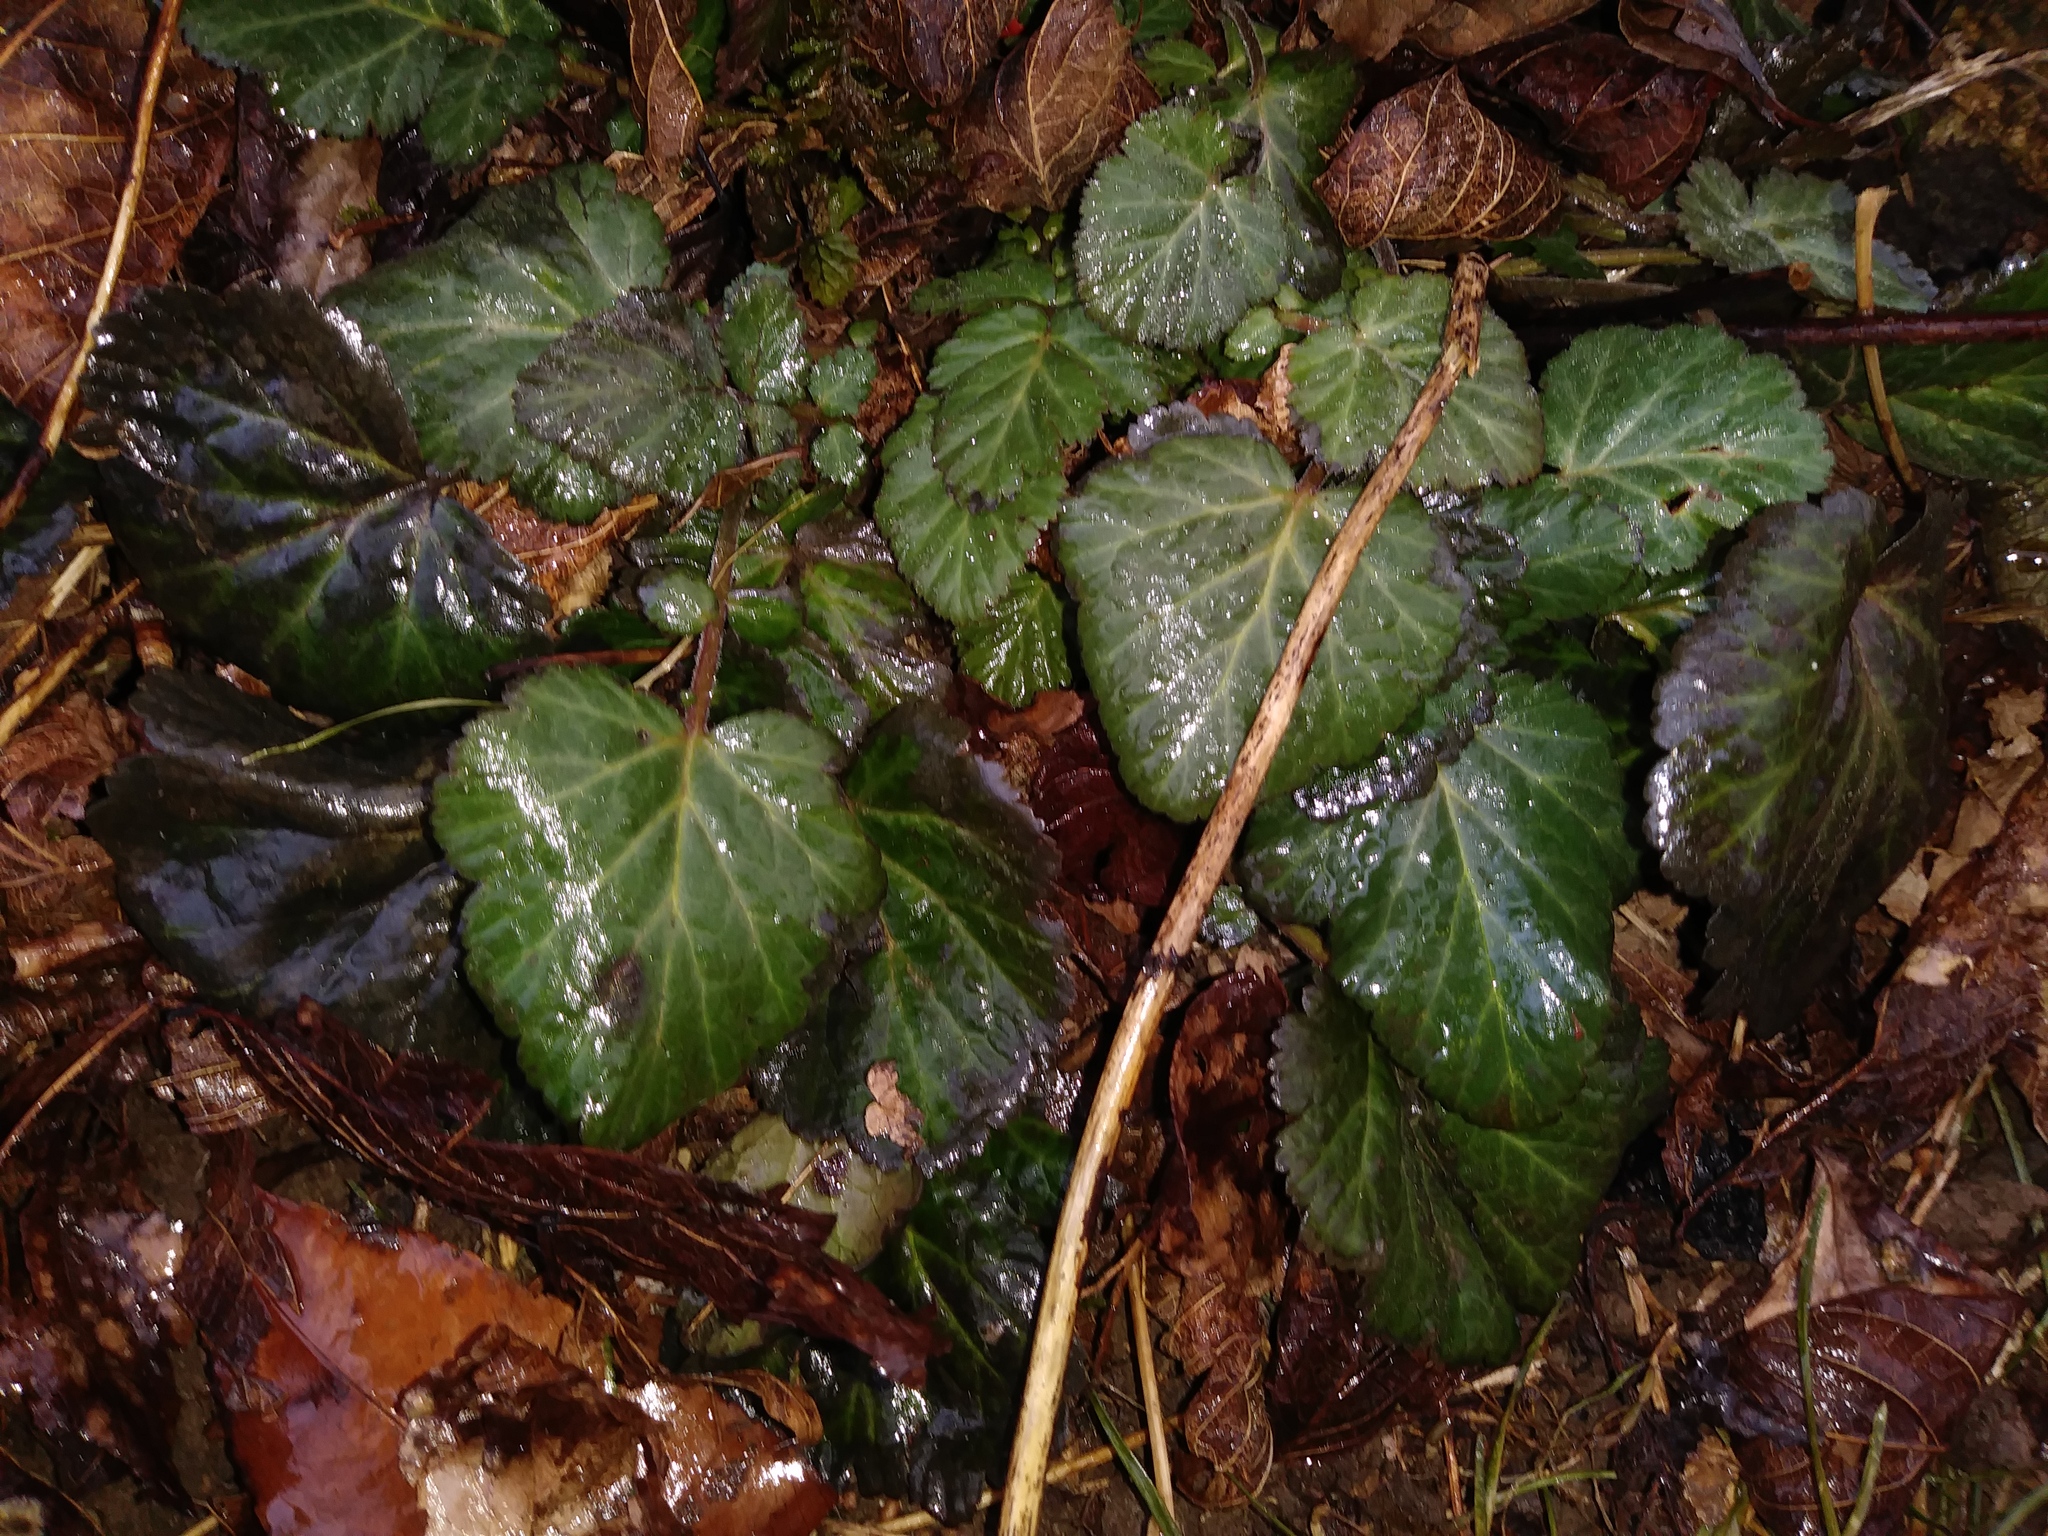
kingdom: Plantae
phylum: Tracheophyta
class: Magnoliopsida
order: Rosales
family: Rosaceae
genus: Geum
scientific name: Geum canadense
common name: White avens
